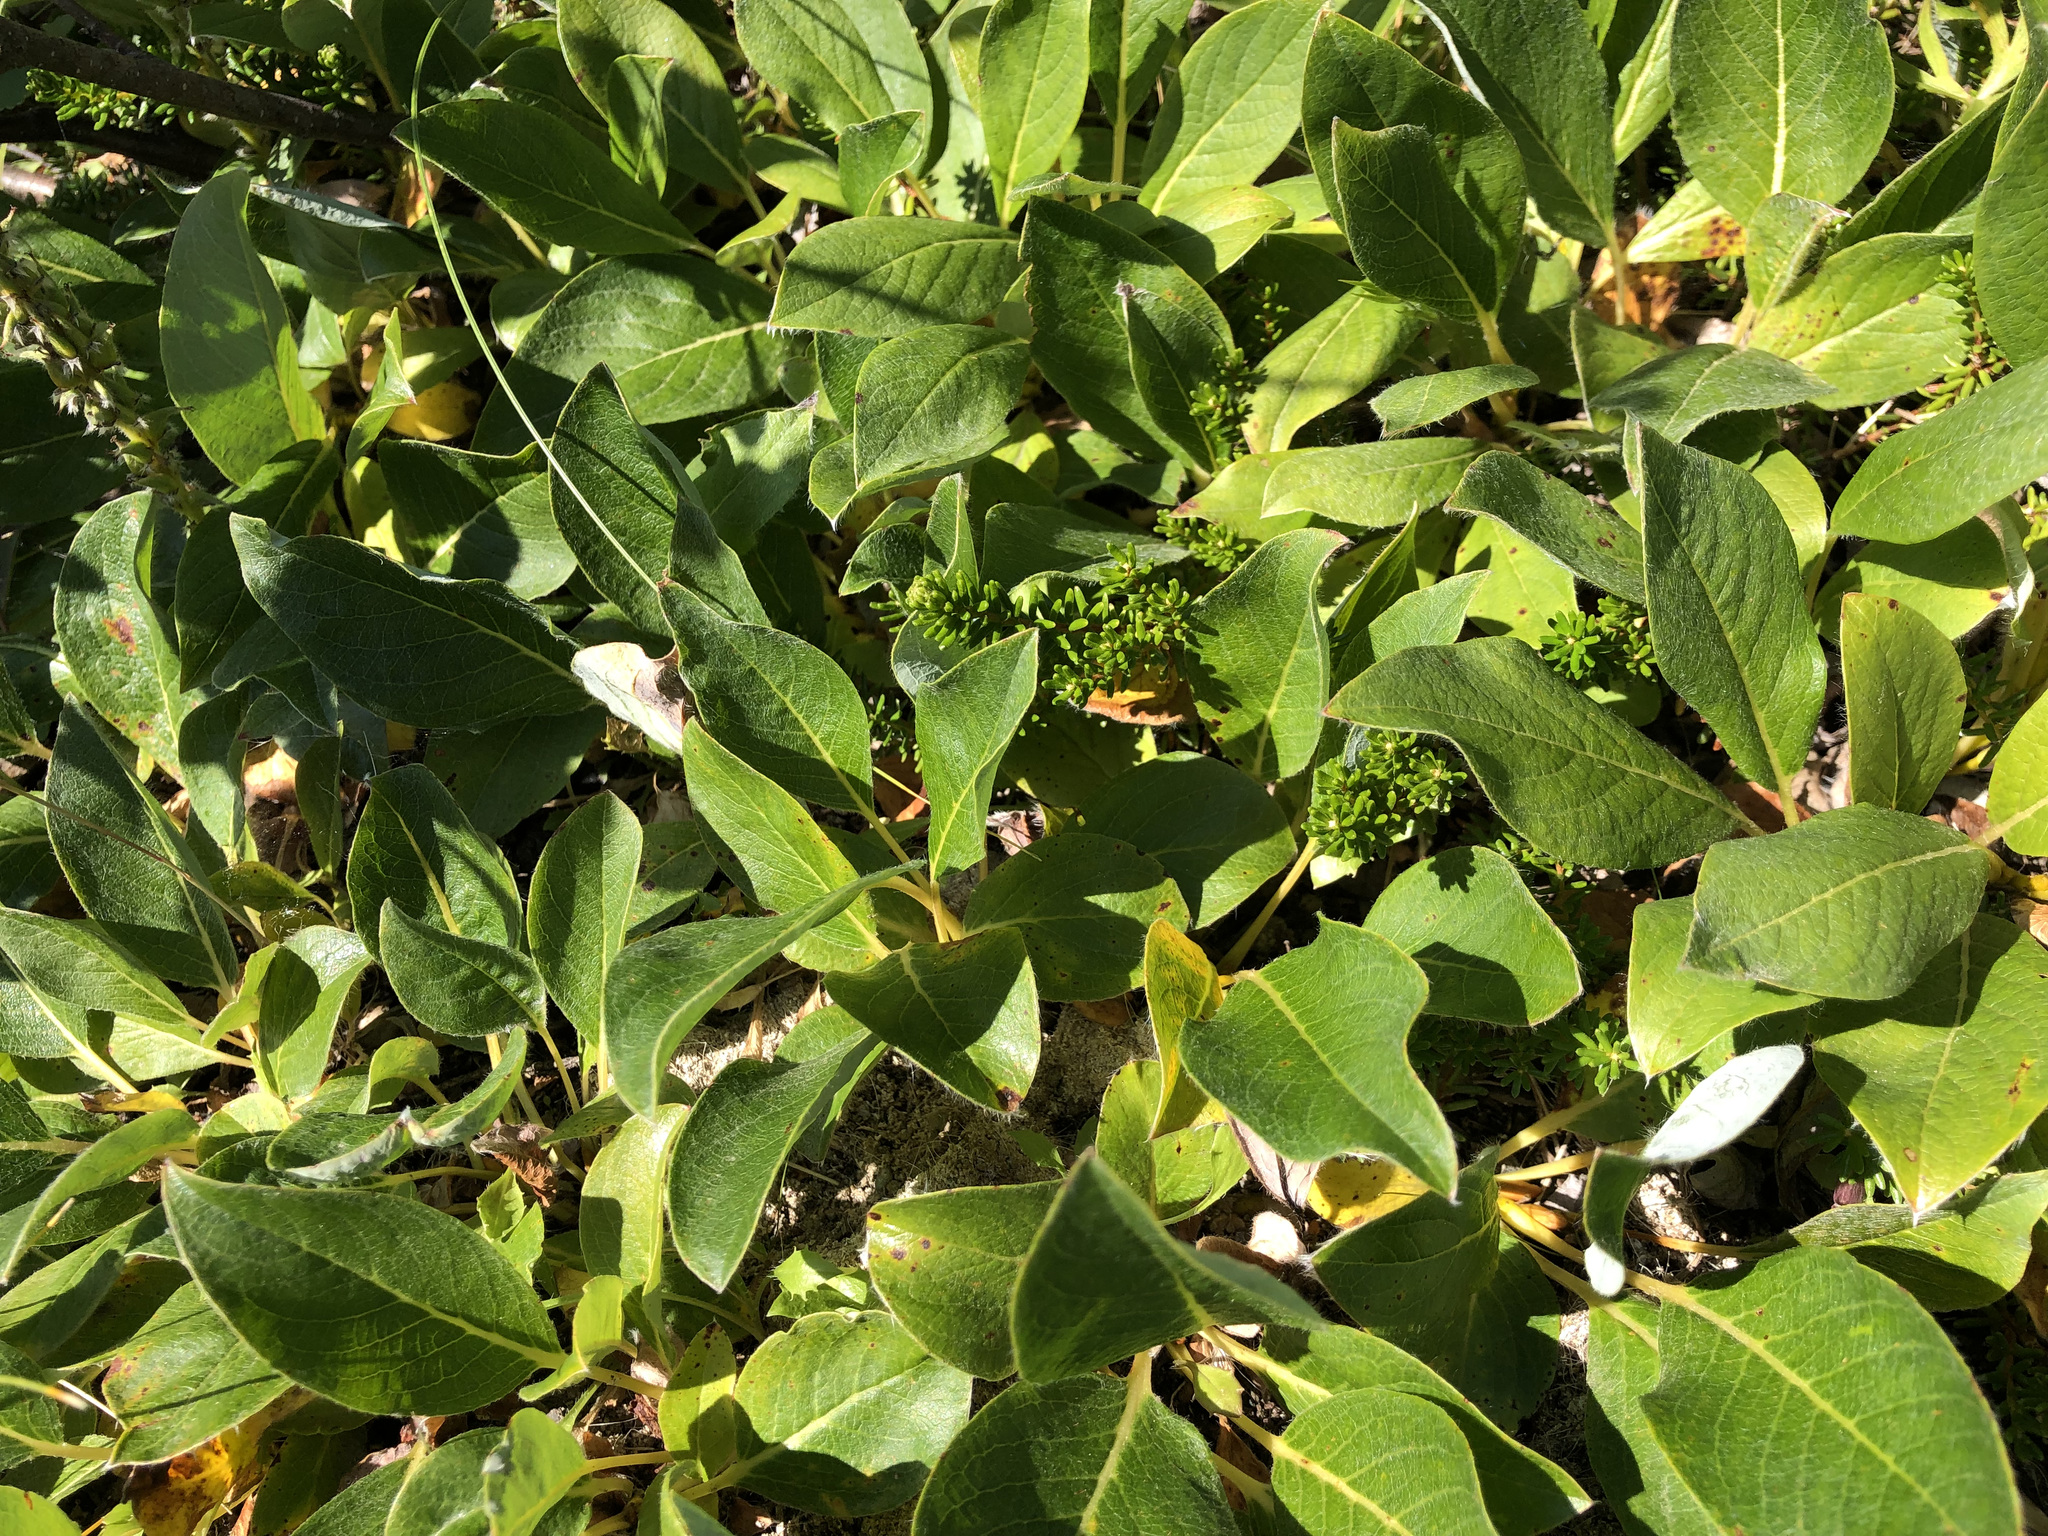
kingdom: Plantae
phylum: Tracheophyta
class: Magnoliopsida
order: Malpighiales
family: Salicaceae
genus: Salix
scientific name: Salix arctica
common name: Arctic willow
